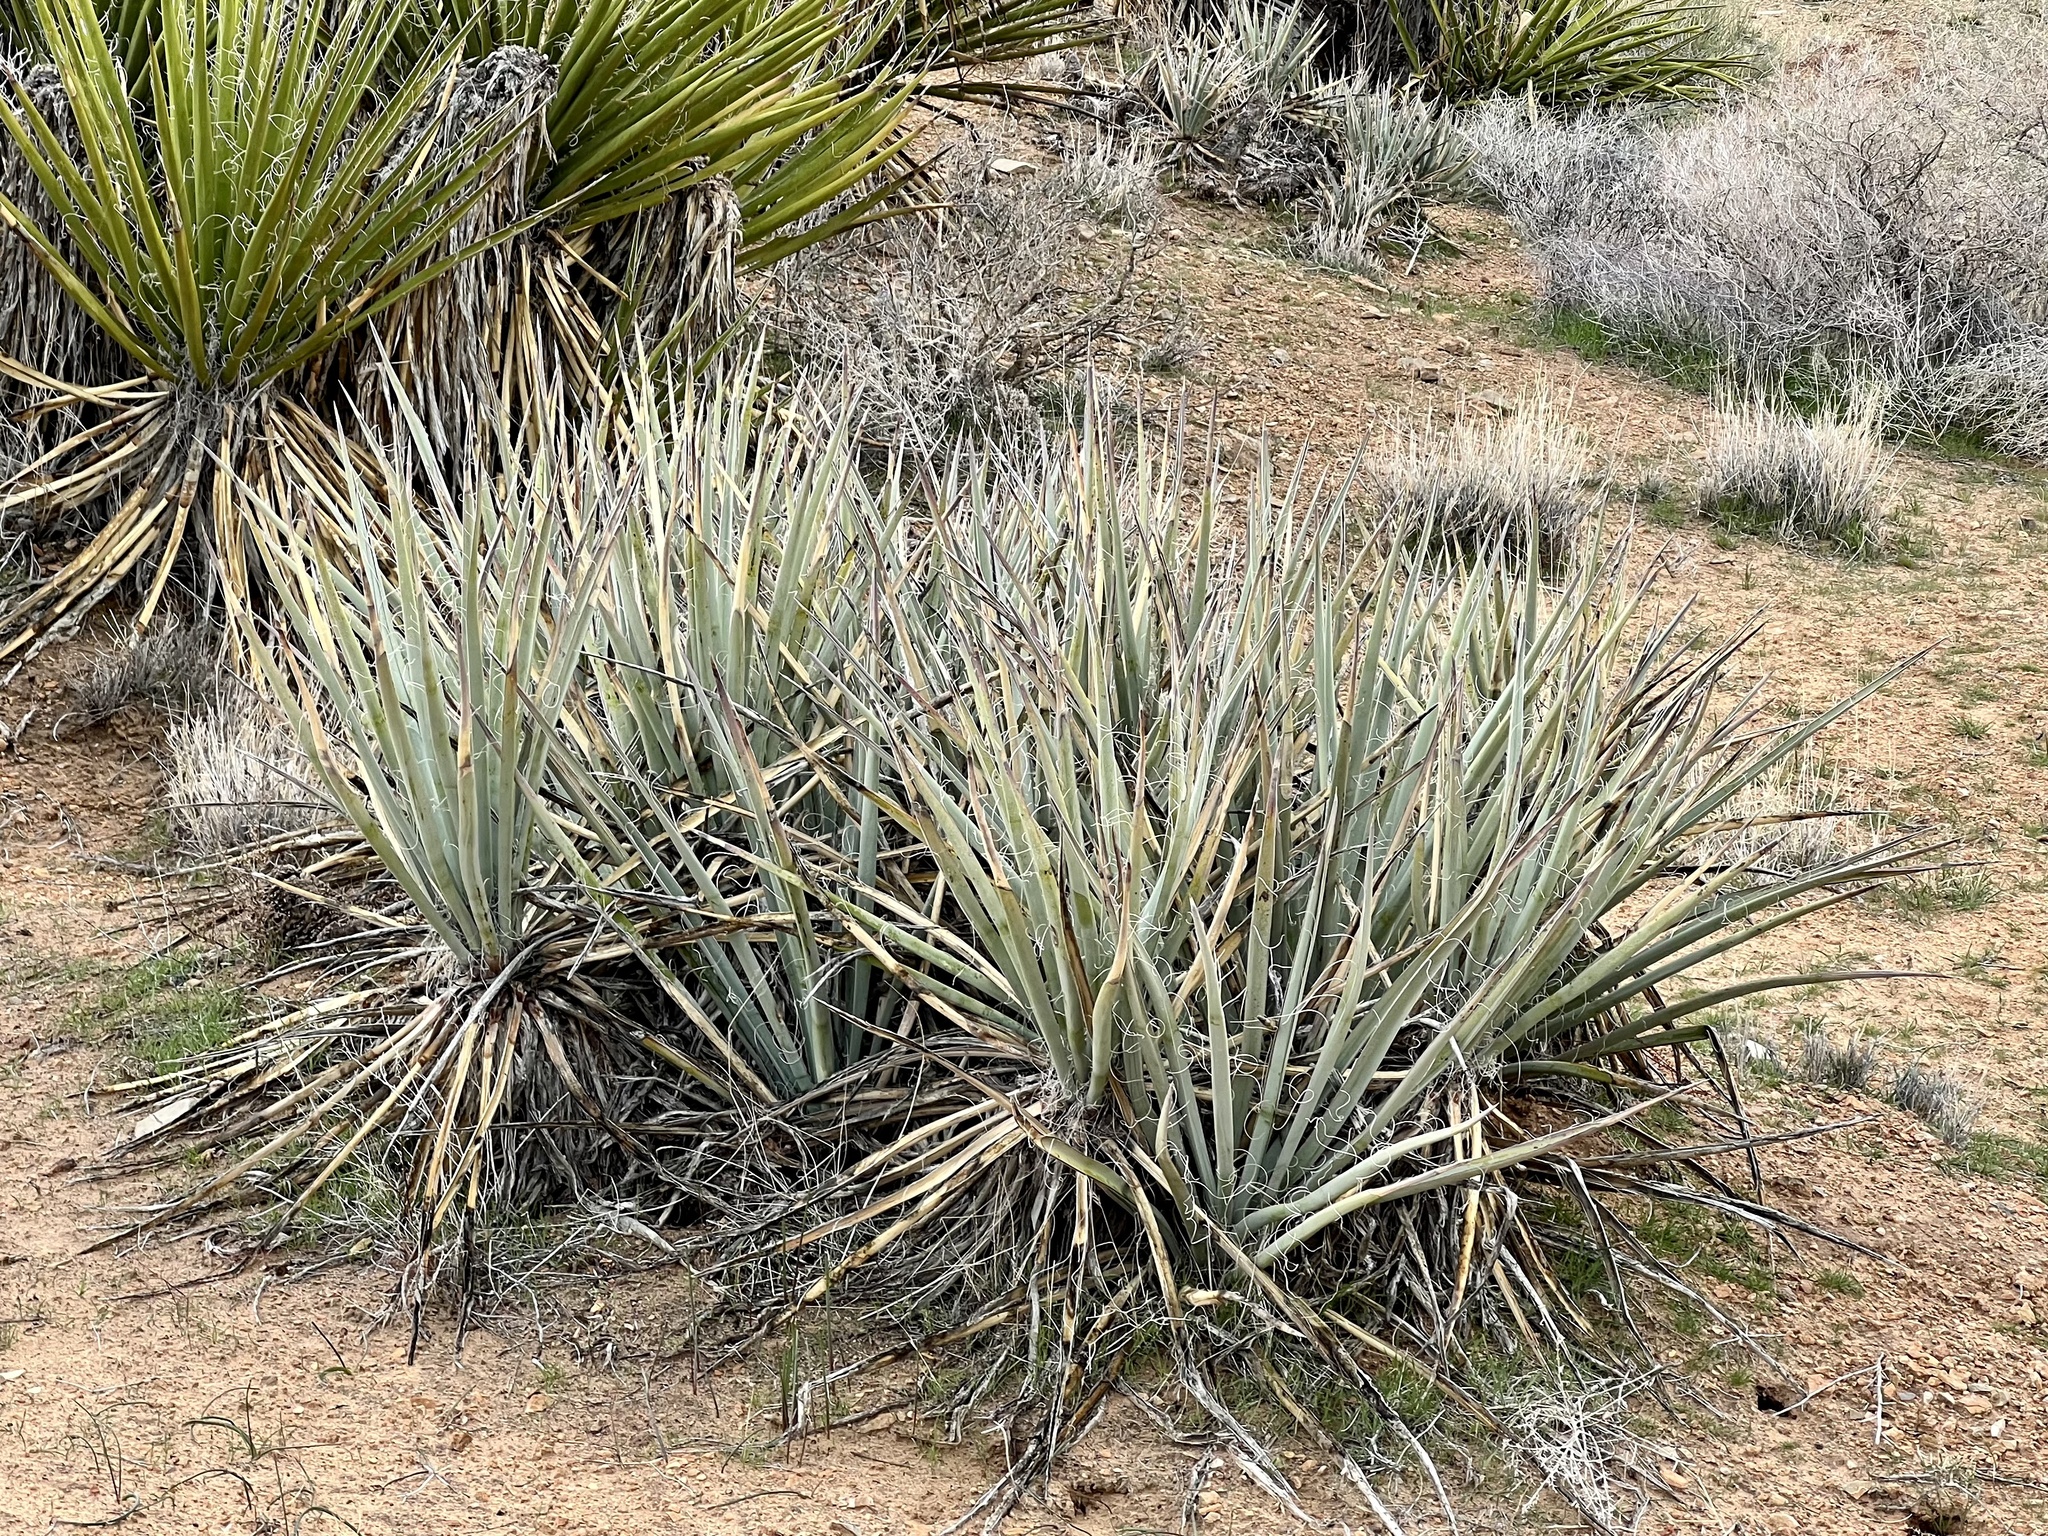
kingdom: Plantae
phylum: Tracheophyta
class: Liliopsida
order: Asparagales
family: Asparagaceae
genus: Yucca
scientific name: Yucca baccata
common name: Banana yucca
